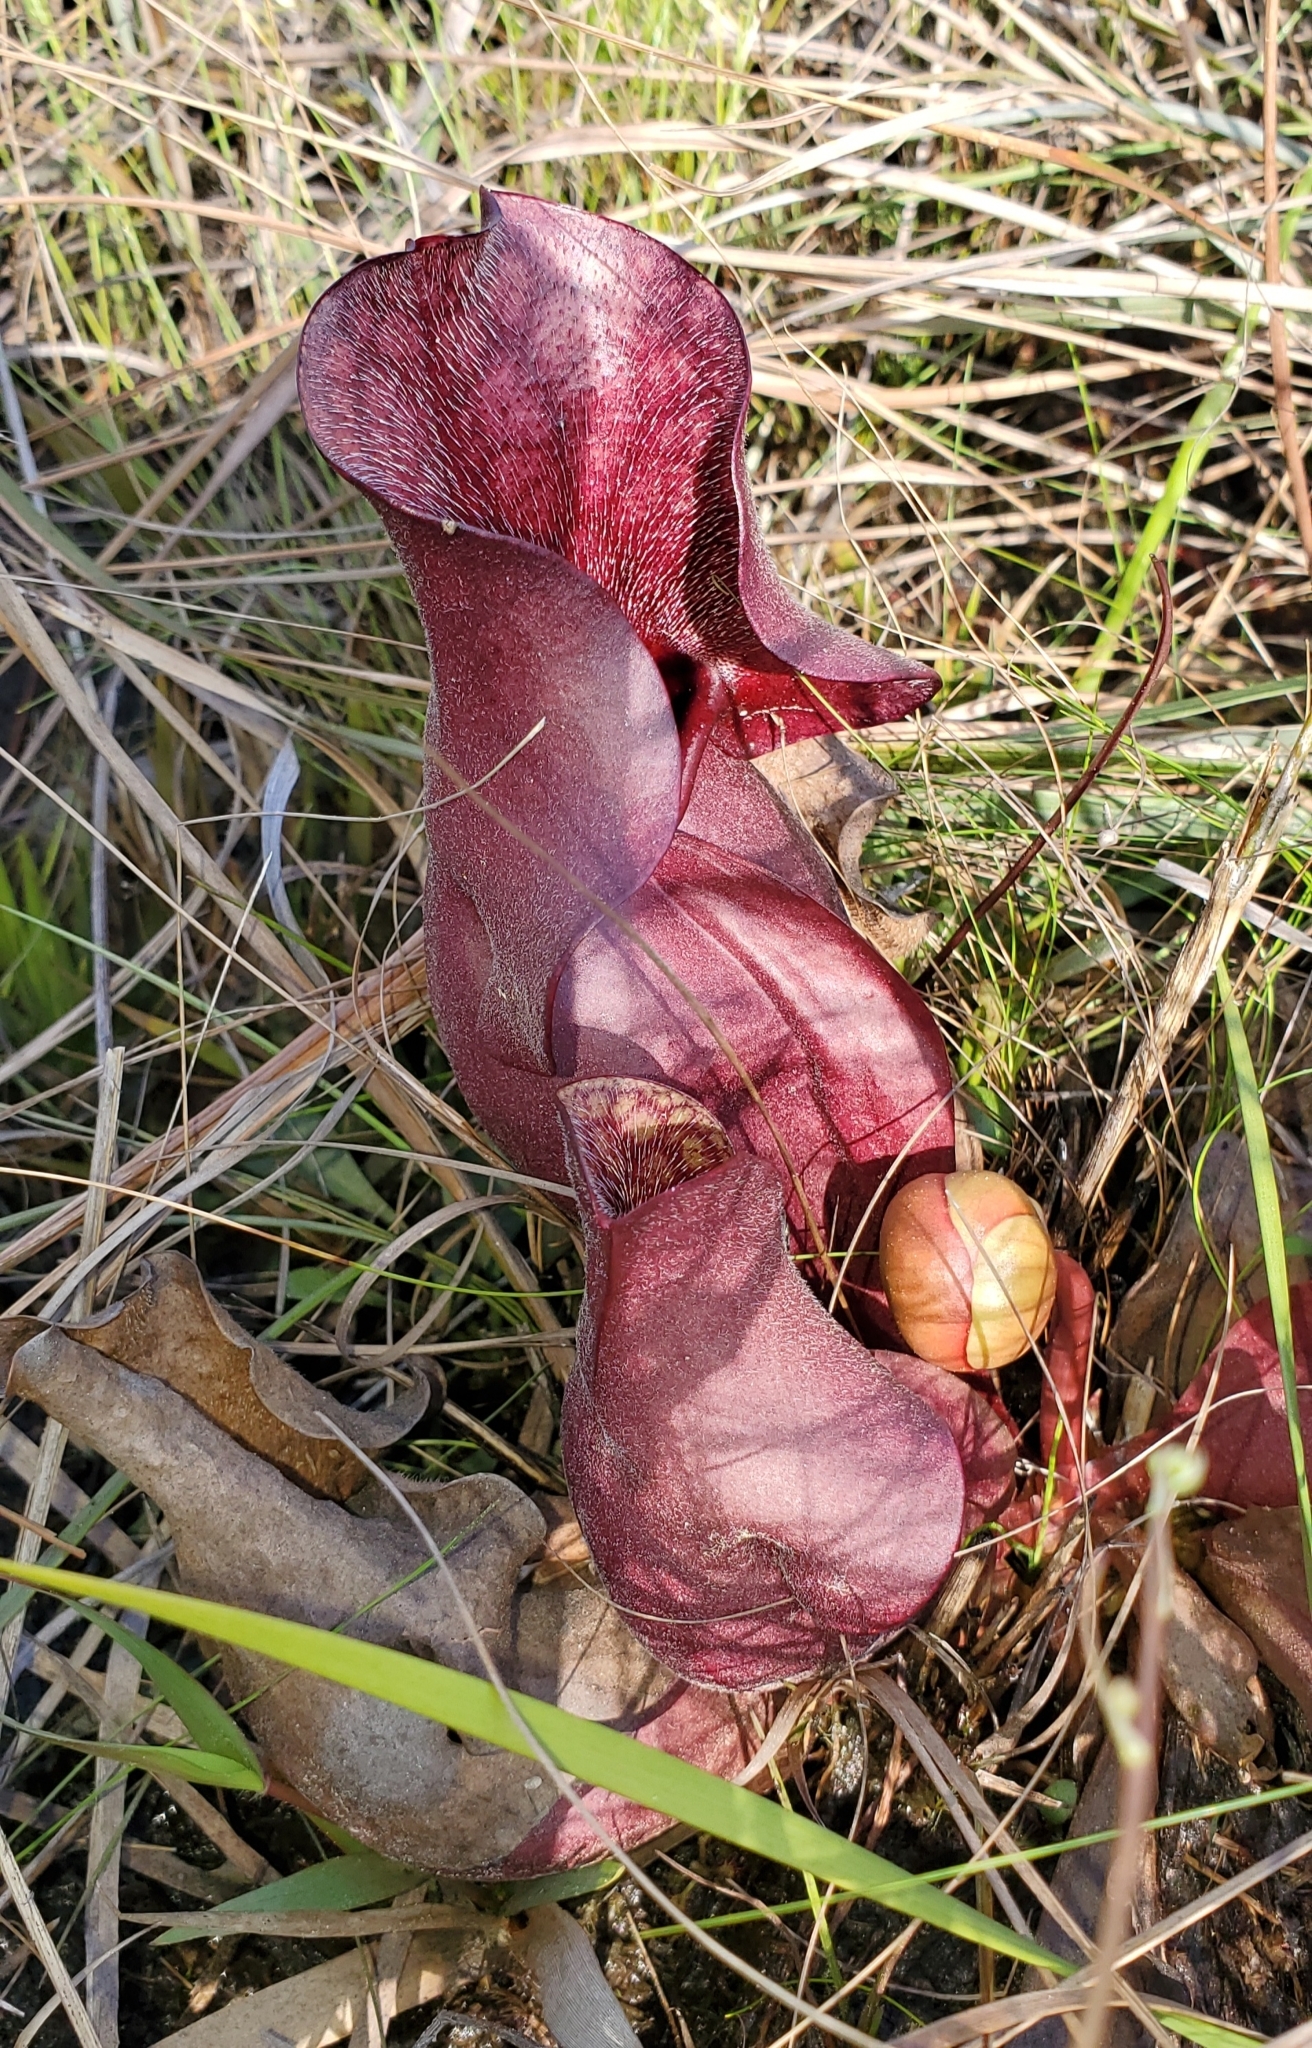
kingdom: Plantae
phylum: Tracheophyta
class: Magnoliopsida
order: Ericales
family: Sarraceniaceae
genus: Sarracenia
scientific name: Sarracenia rosea
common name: Pink pitcherplant
